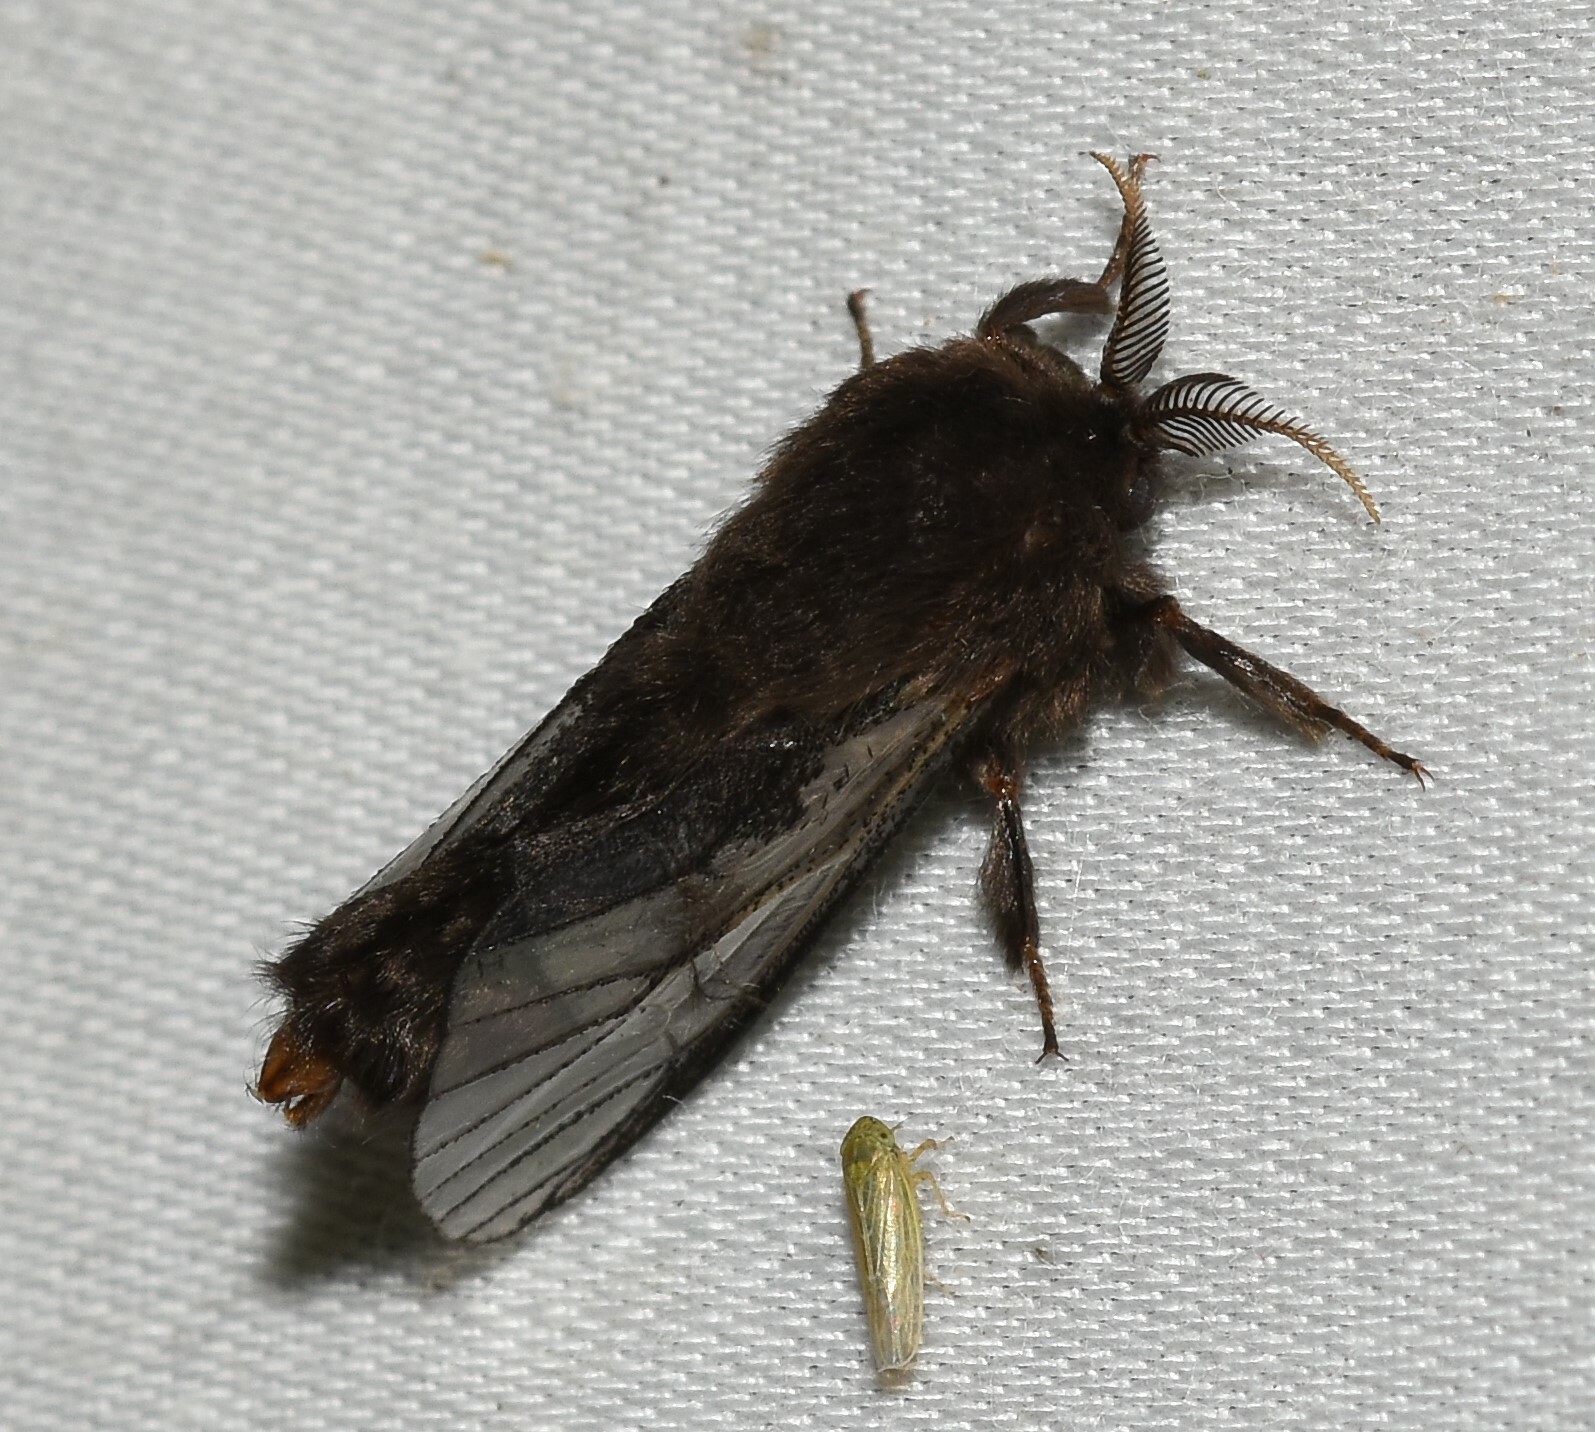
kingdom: Animalia
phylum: Arthropoda
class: Insecta
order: Lepidoptera
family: Psychidae
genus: Thyridopteryx
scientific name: Thyridopteryx ephemeraeformis
